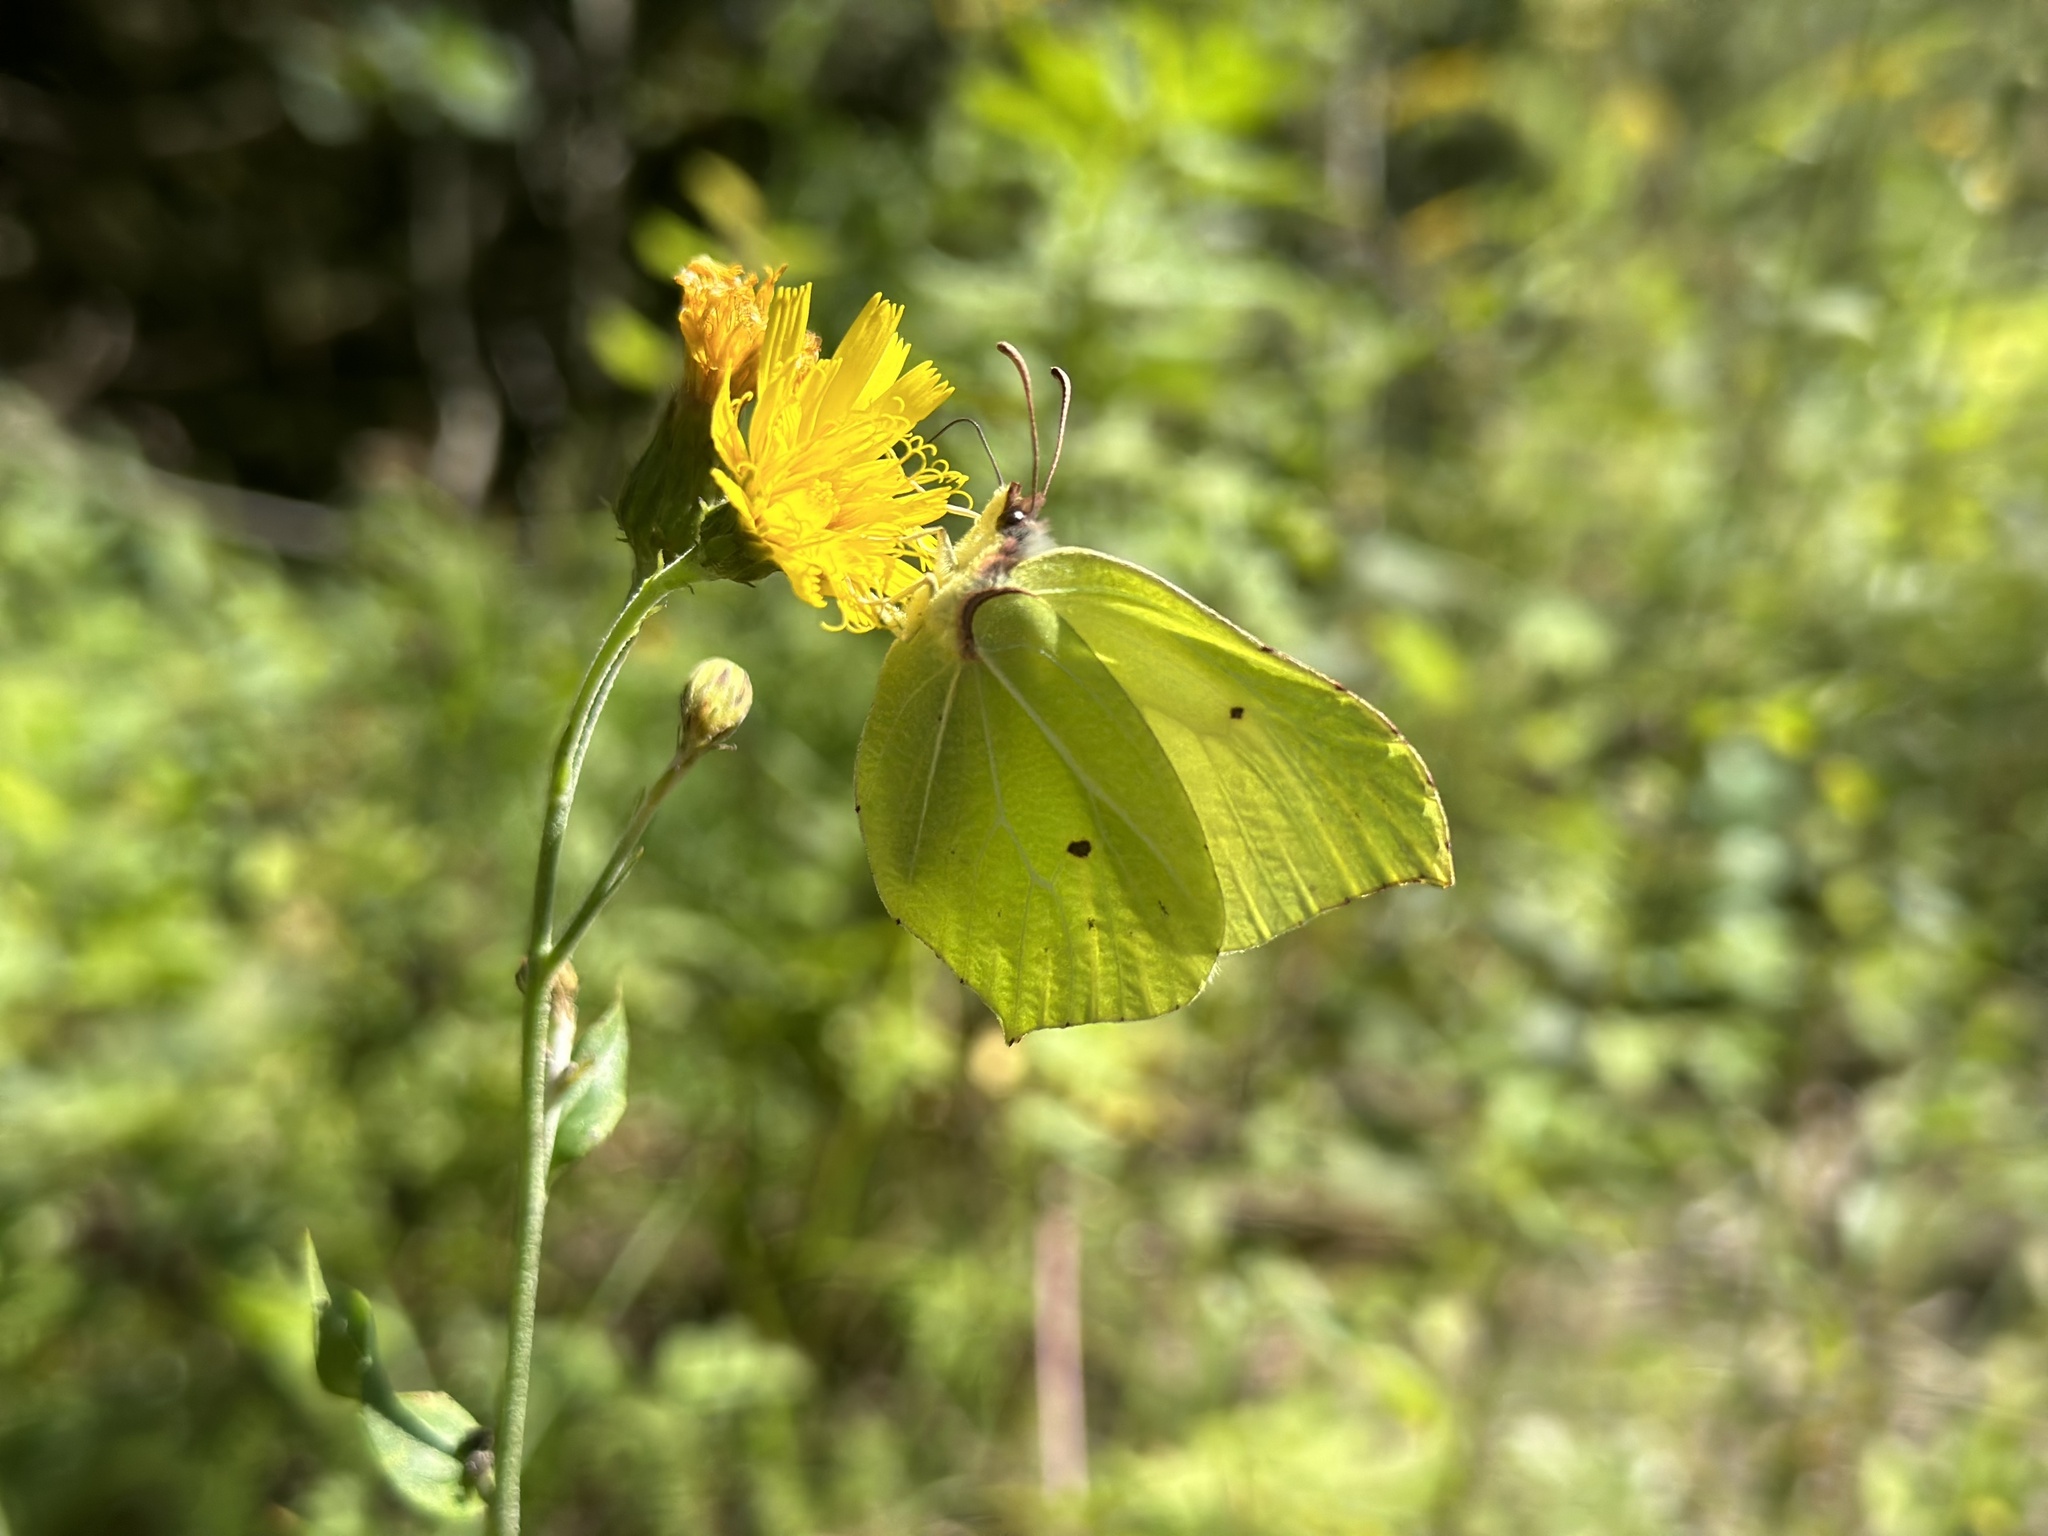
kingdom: Animalia
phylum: Arthropoda
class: Insecta
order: Lepidoptera
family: Pieridae
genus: Gonepteryx
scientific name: Gonepteryx rhamni
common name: Brimstone
